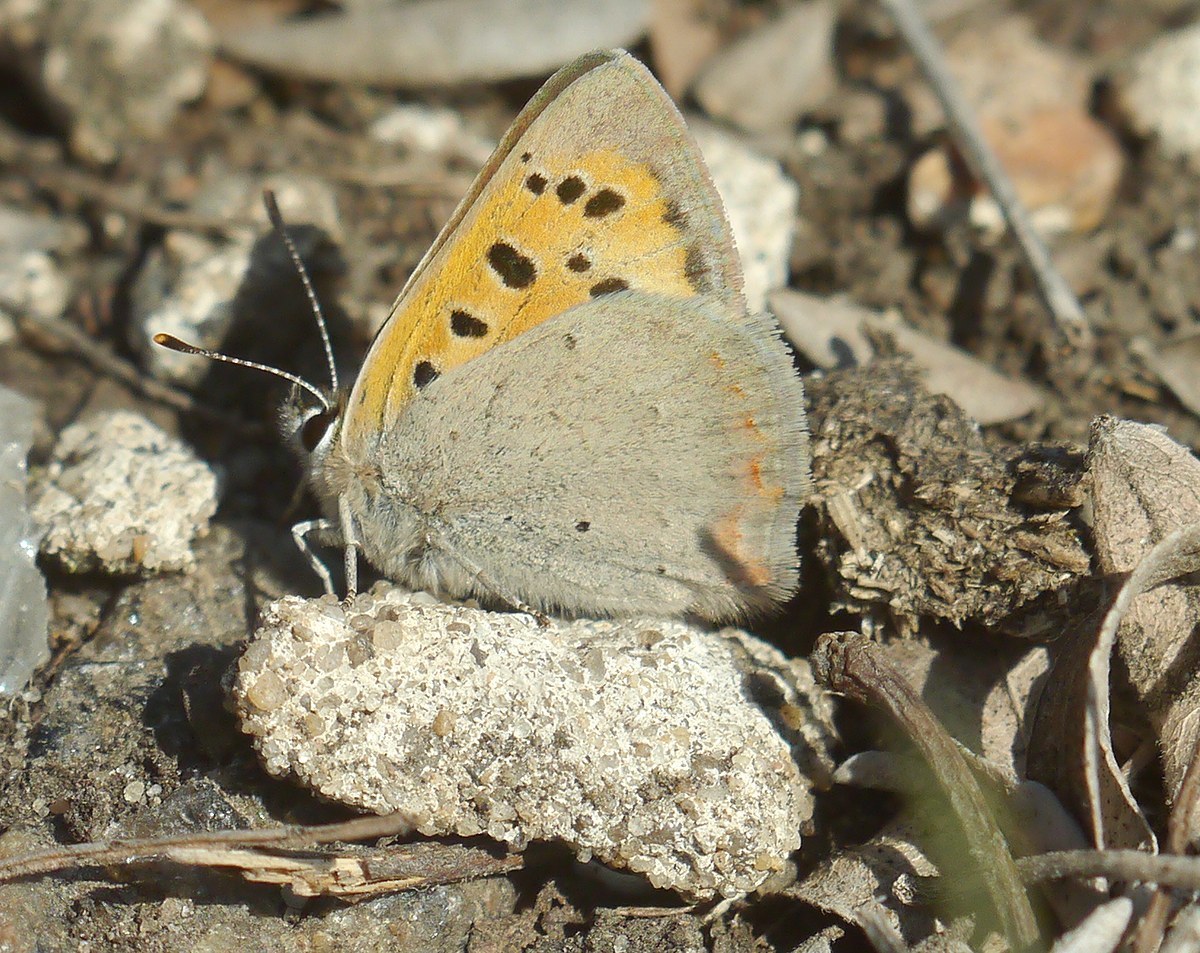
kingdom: Animalia
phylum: Arthropoda
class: Insecta
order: Lepidoptera
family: Lycaenidae
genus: Lycaena
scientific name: Lycaena phlaeas
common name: Small copper
